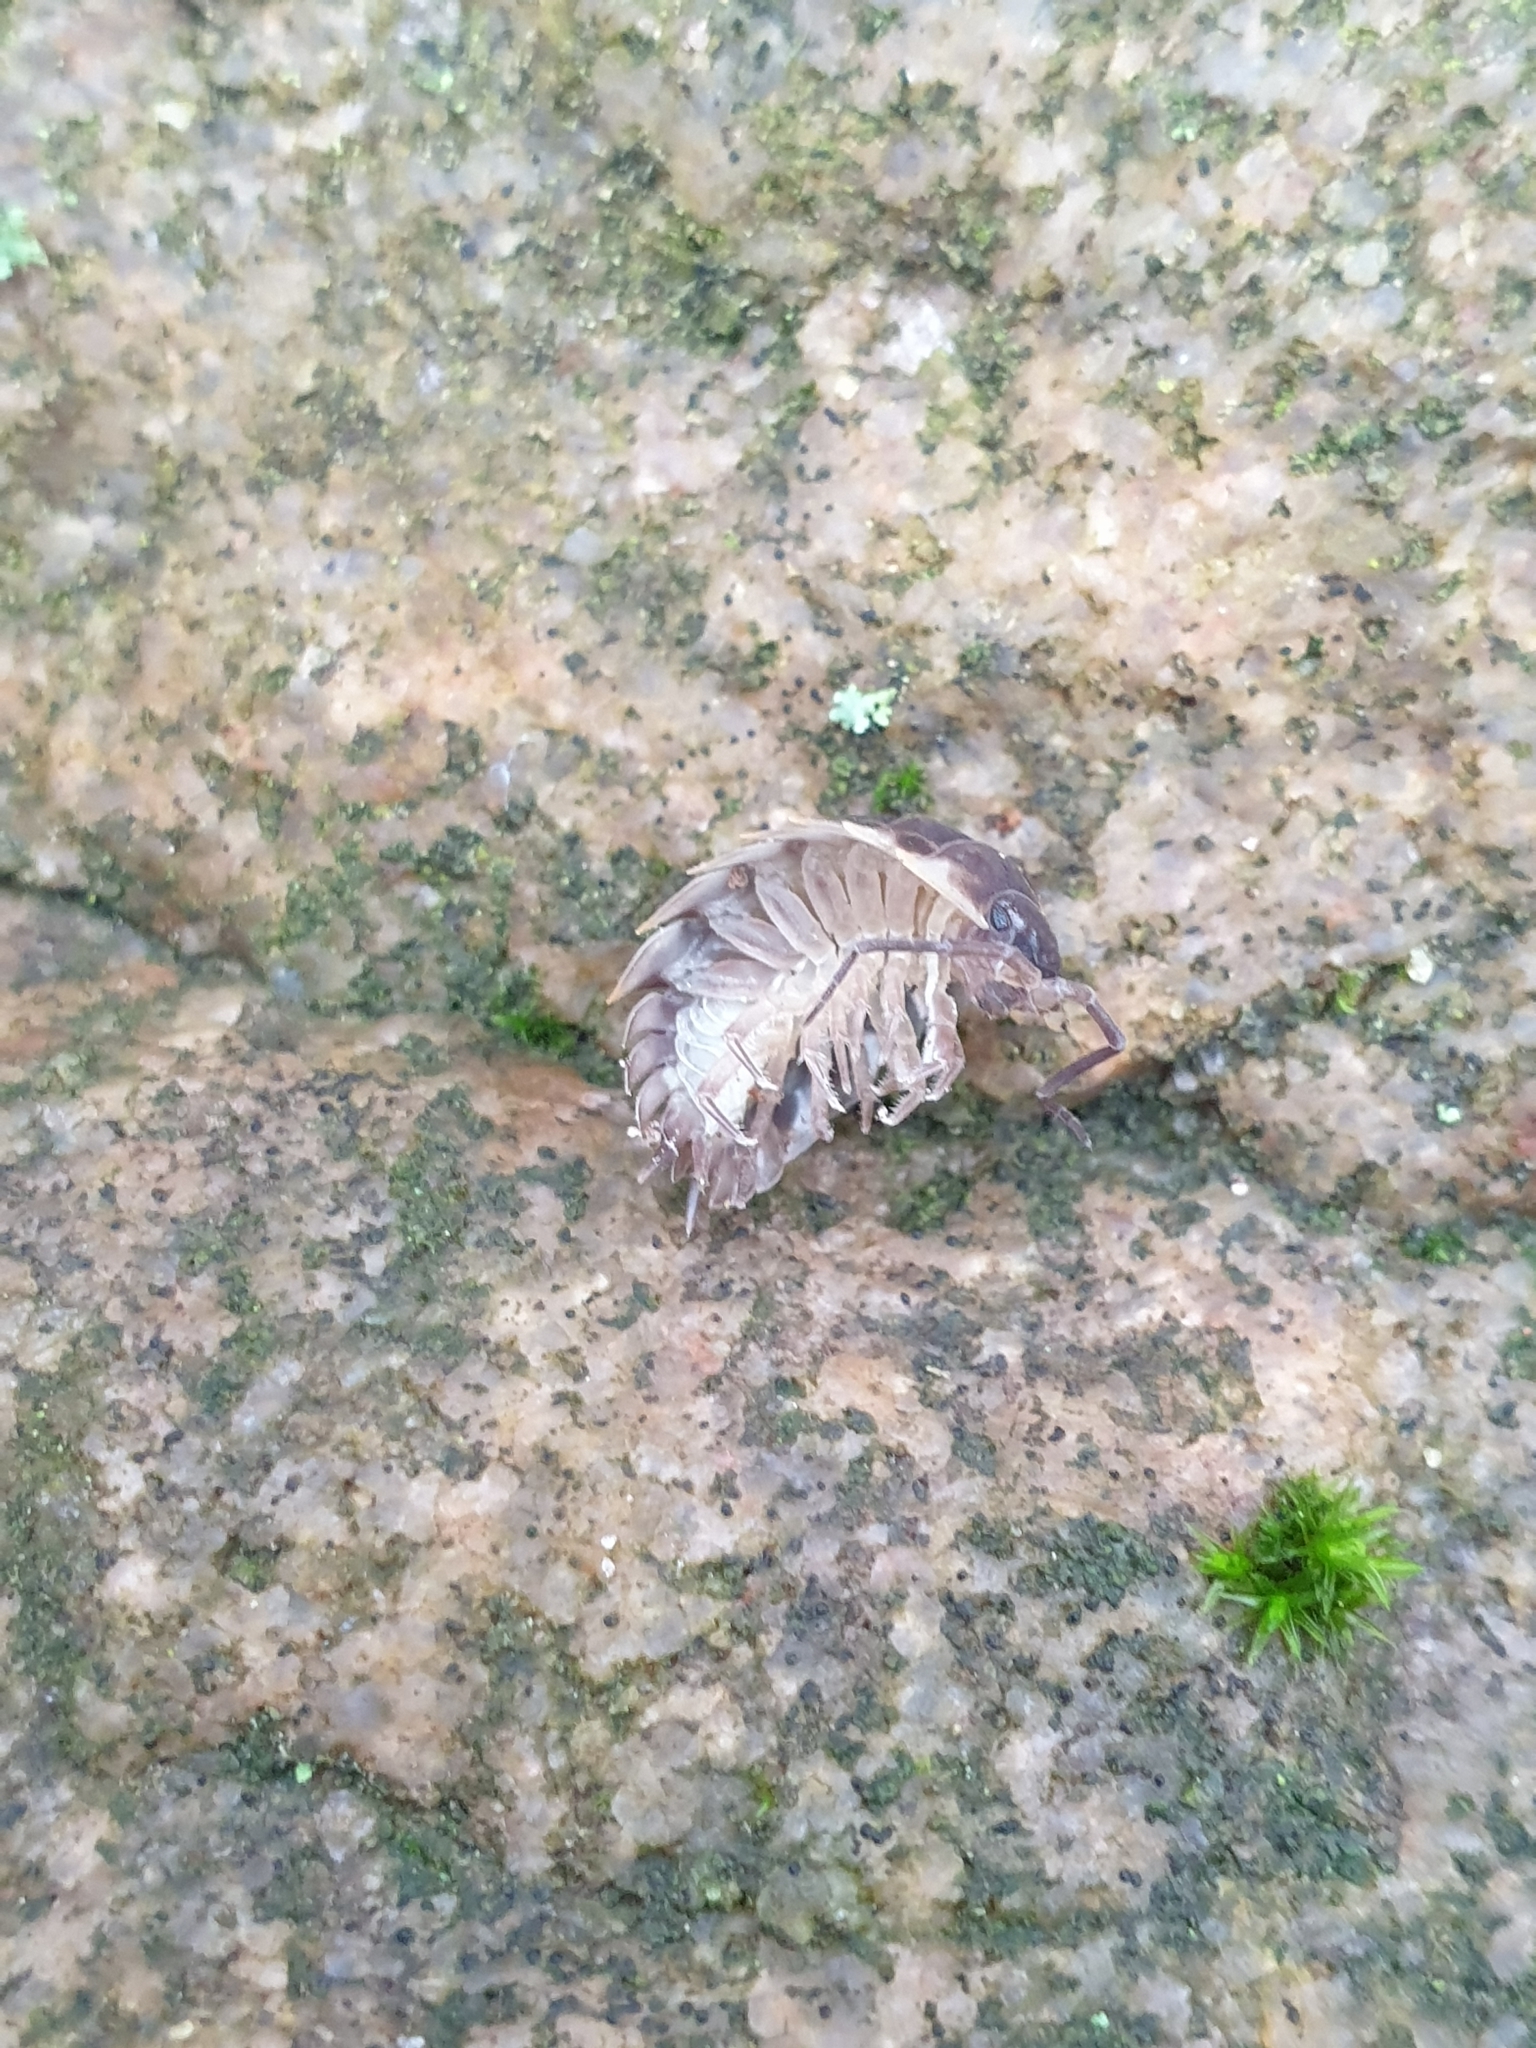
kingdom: Animalia
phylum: Arthropoda
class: Malacostraca
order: Isopoda
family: Oniscidae
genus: Oniscus
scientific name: Oniscus asellus
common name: Common shiny woodlouse
